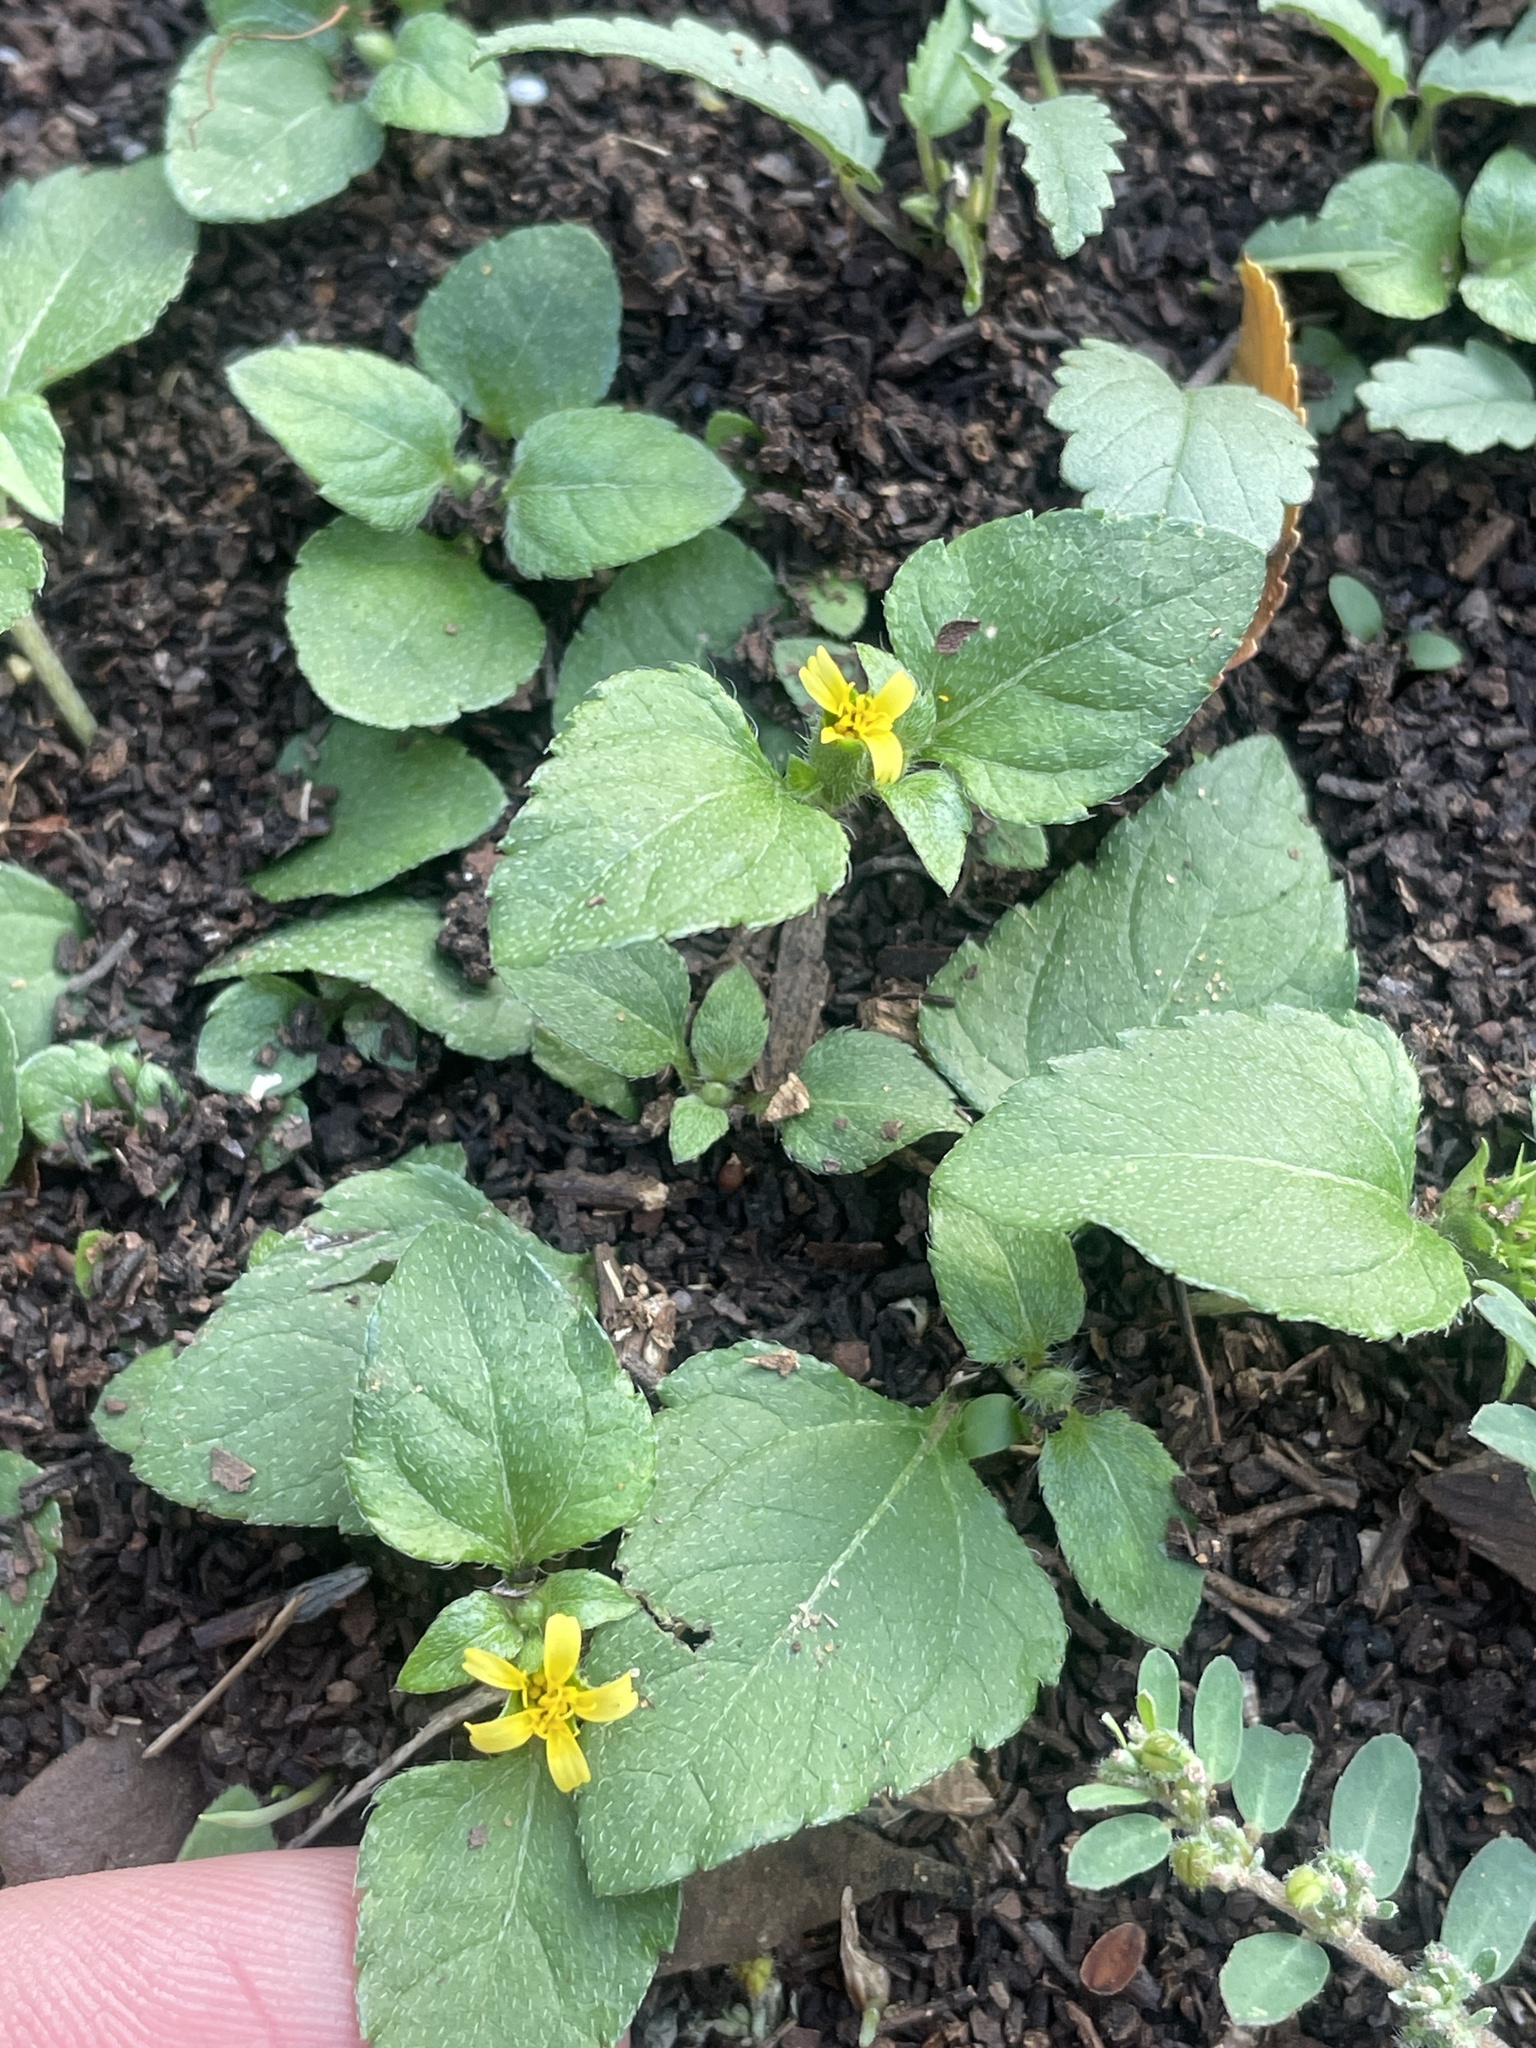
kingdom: Plantae
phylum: Tracheophyta
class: Magnoliopsida
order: Asterales
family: Asteraceae
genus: Calyptocarpus
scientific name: Calyptocarpus vialis
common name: Straggler daisy
